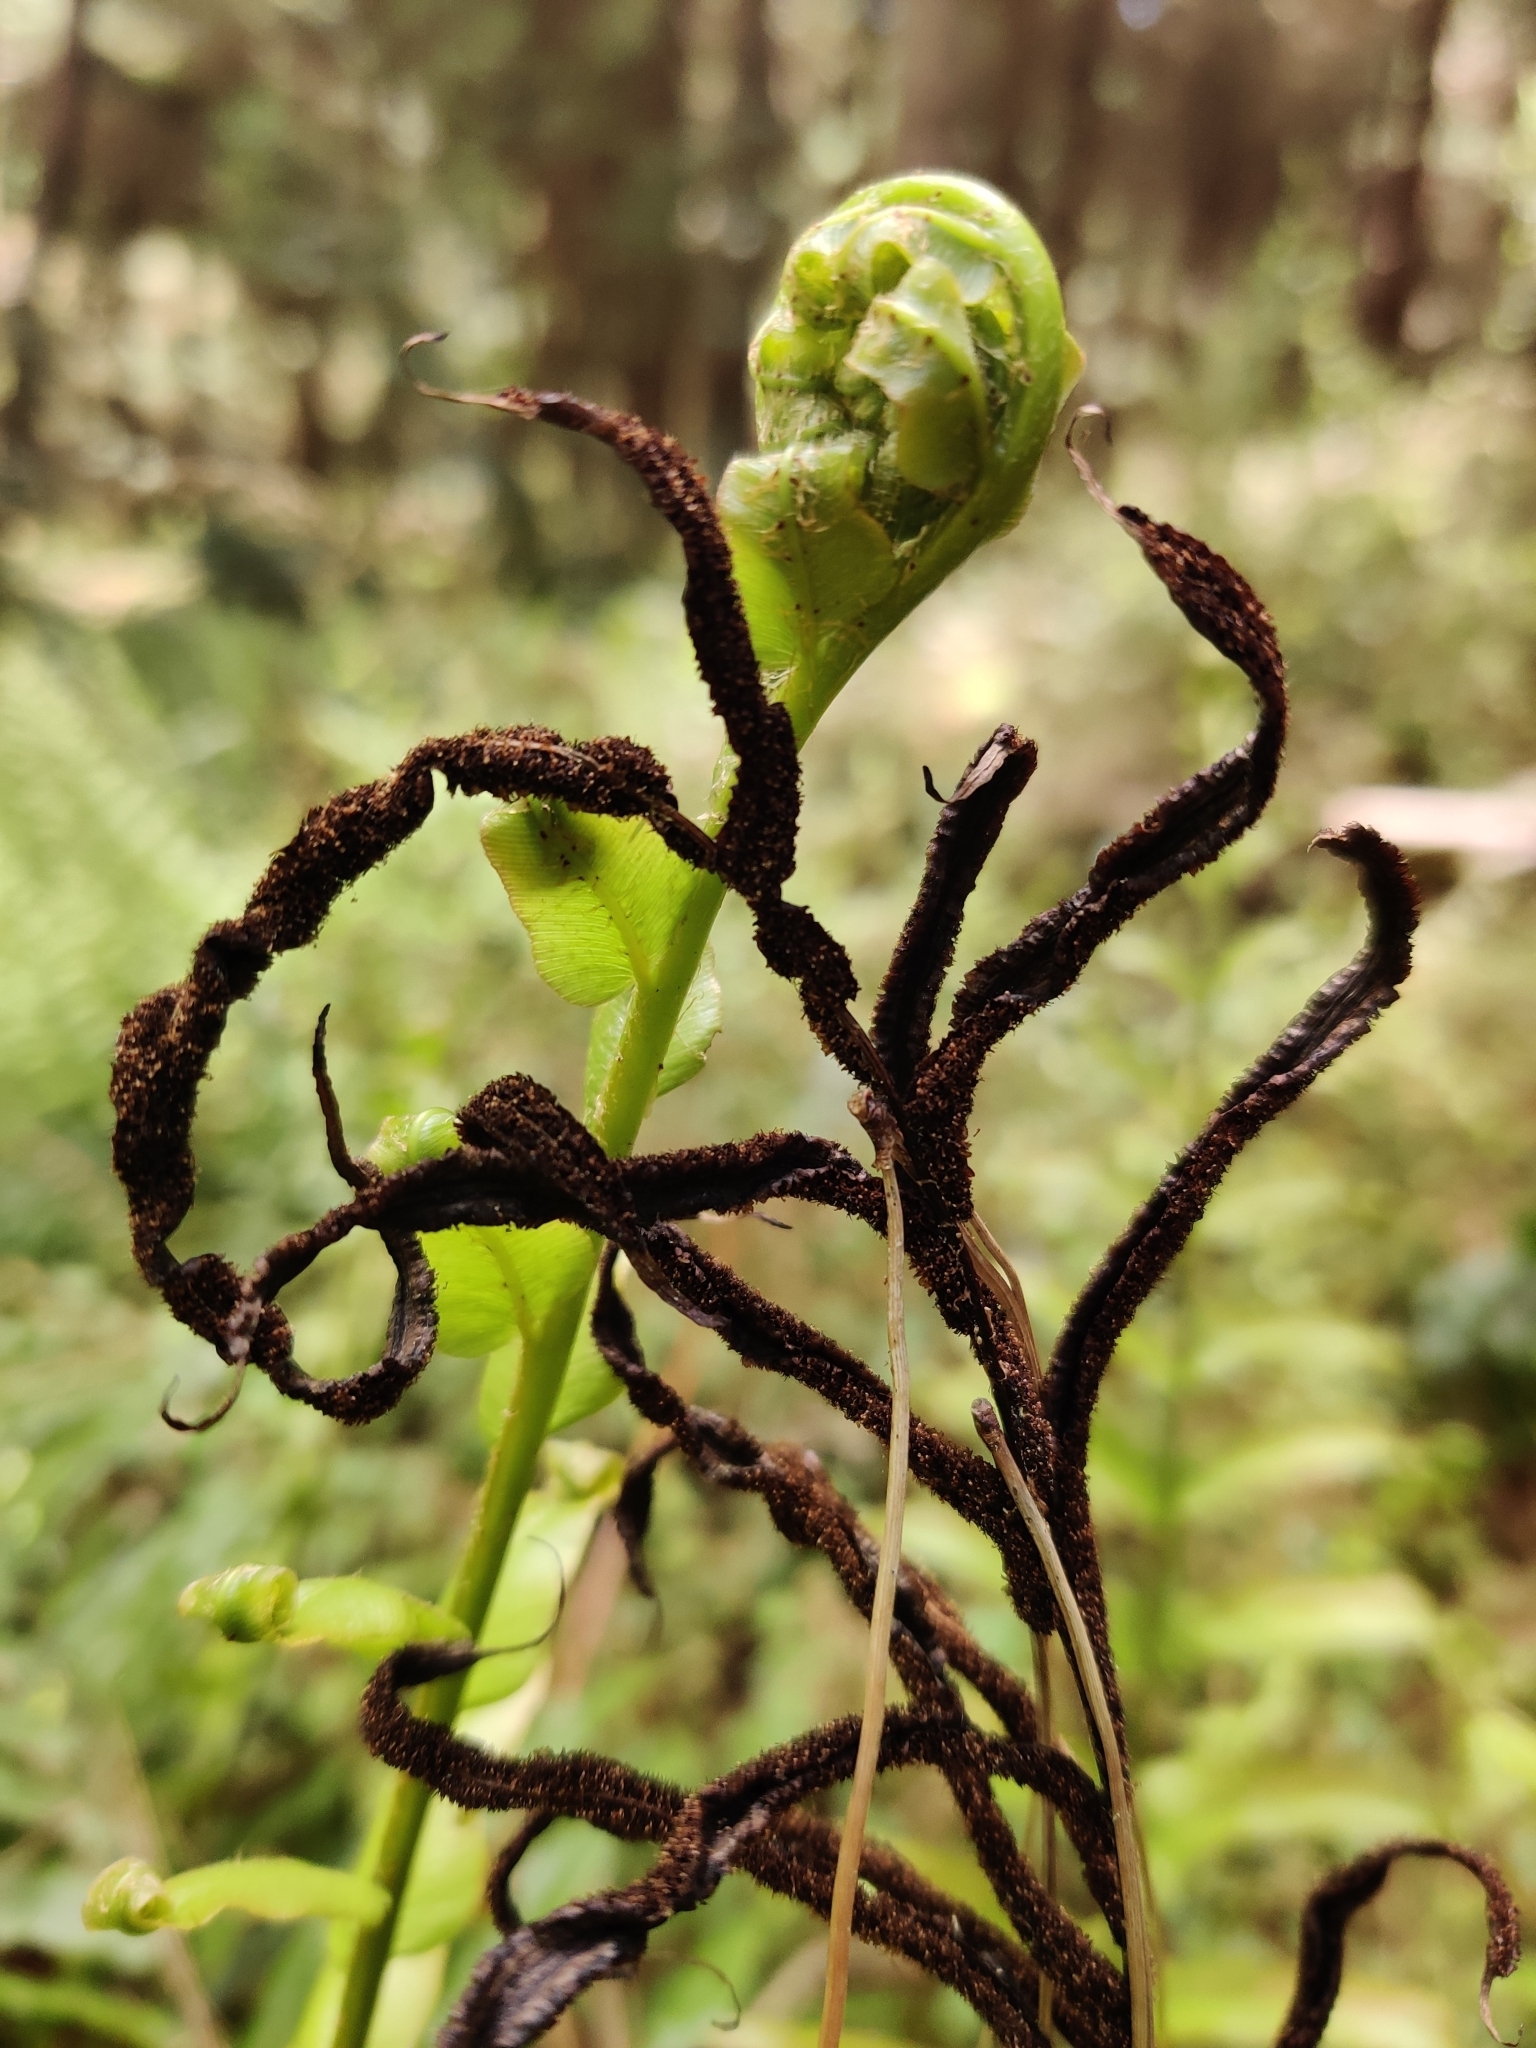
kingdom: Plantae
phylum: Tracheophyta
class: Polypodiopsida
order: Polypodiales
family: Blechnaceae
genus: Parablechnum
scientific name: Parablechnum novae-zelandiae
